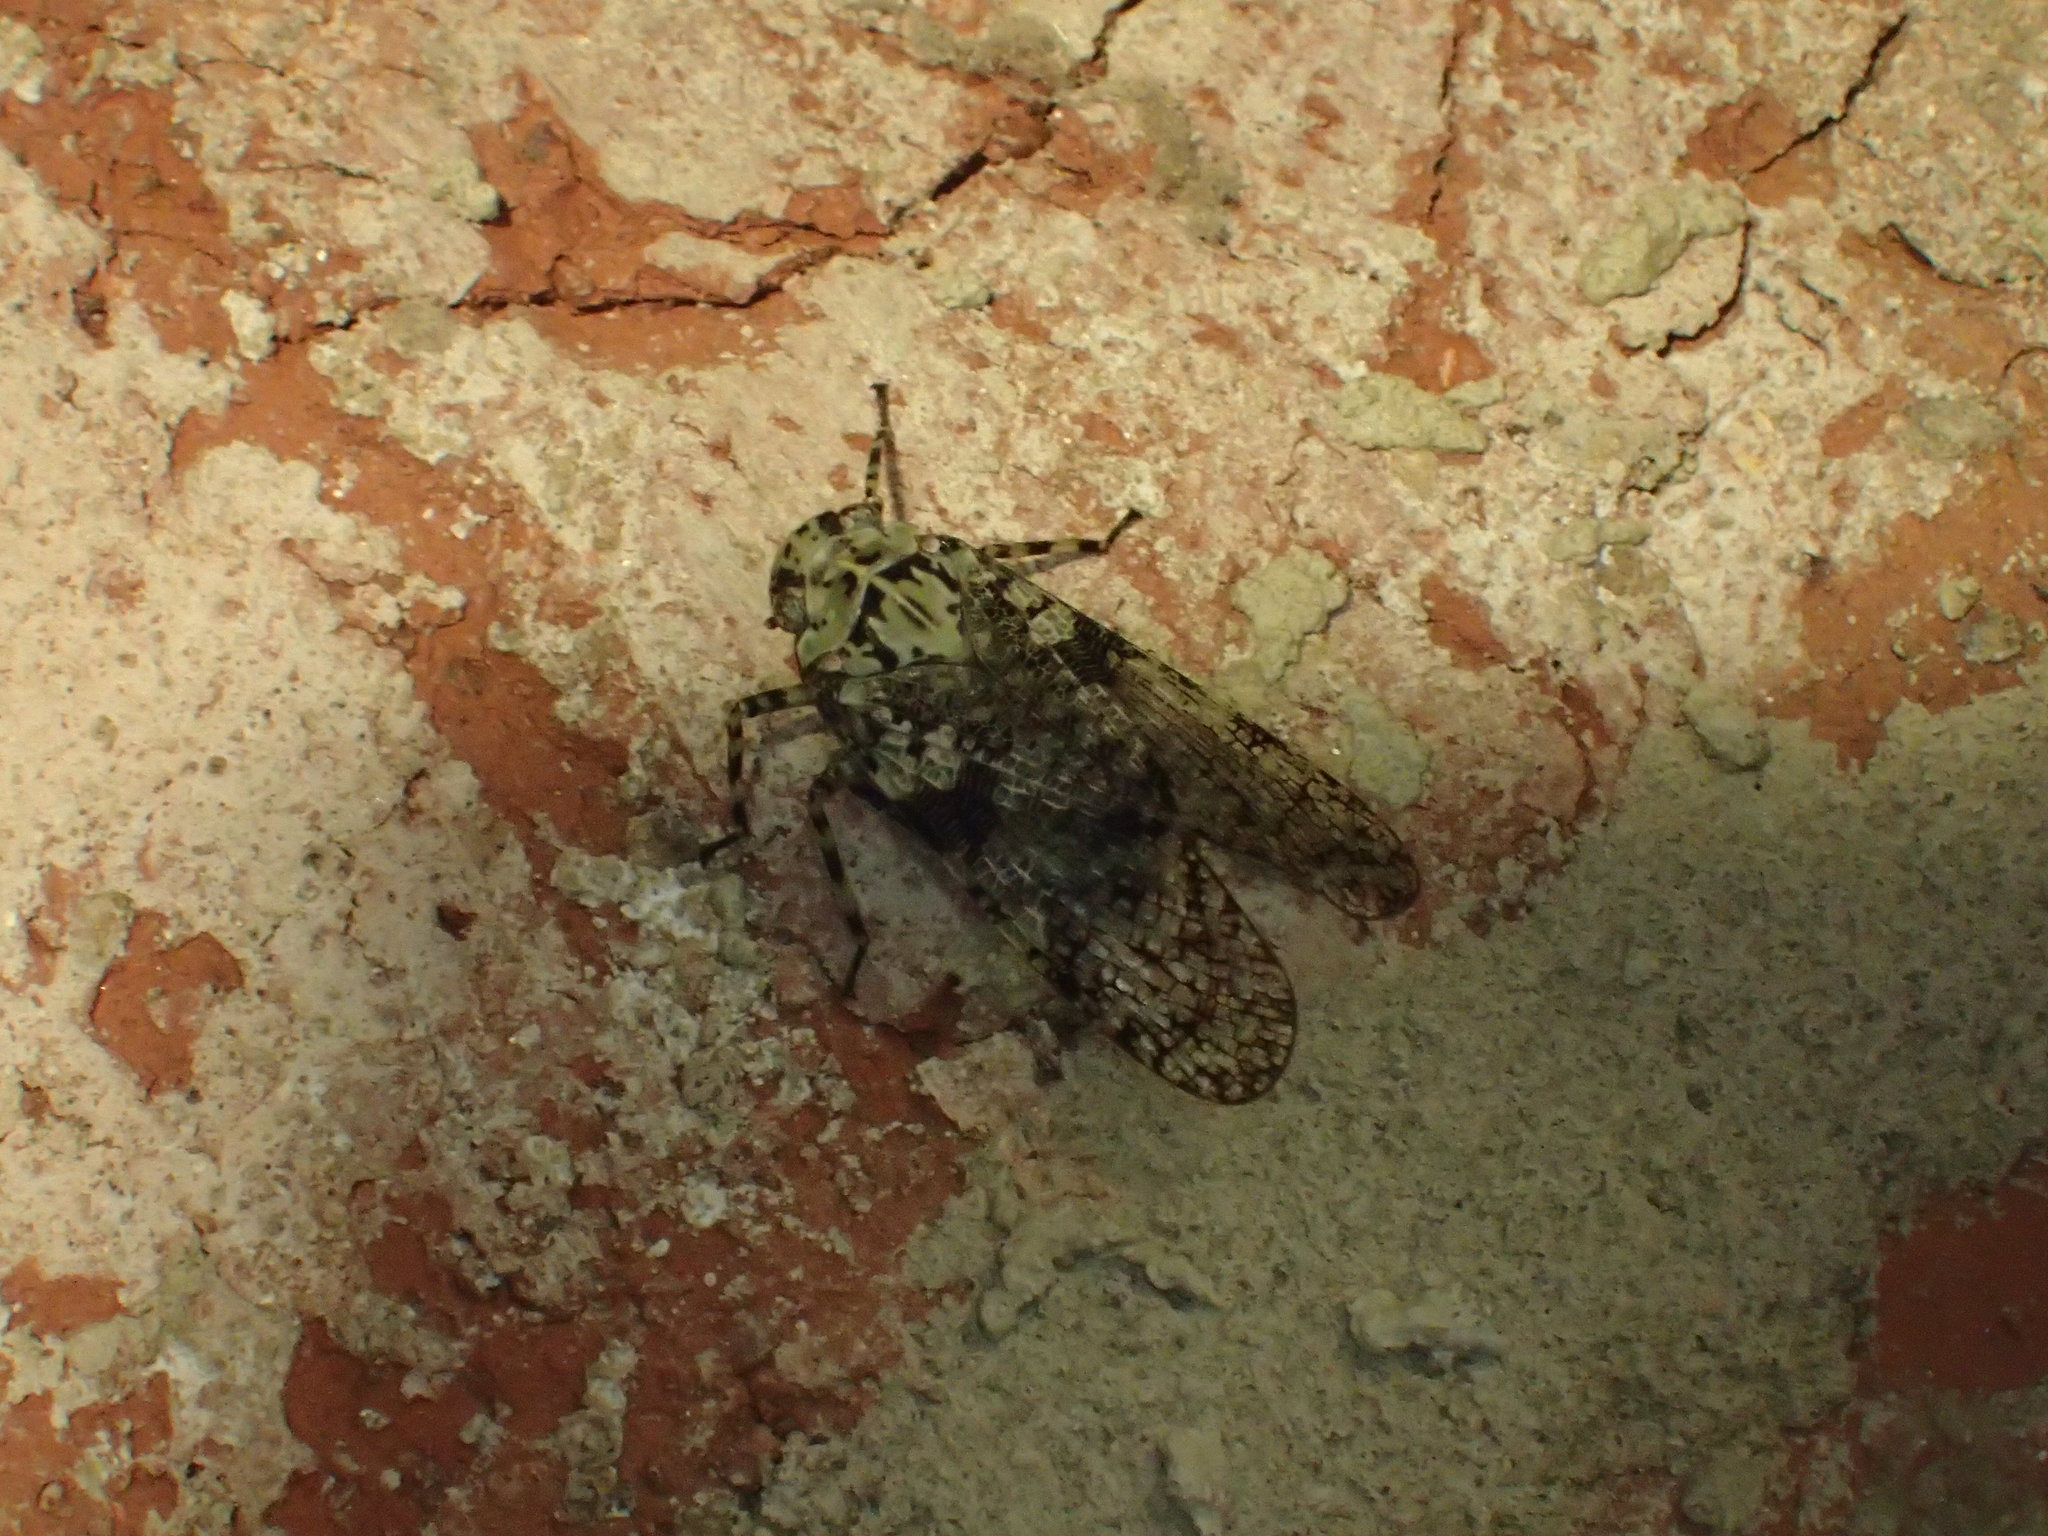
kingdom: Animalia
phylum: Arthropoda
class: Insecta
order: Hemiptera
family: Fulgoridae
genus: Calyptoproctus
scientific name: Calyptoproctus marmoratus
